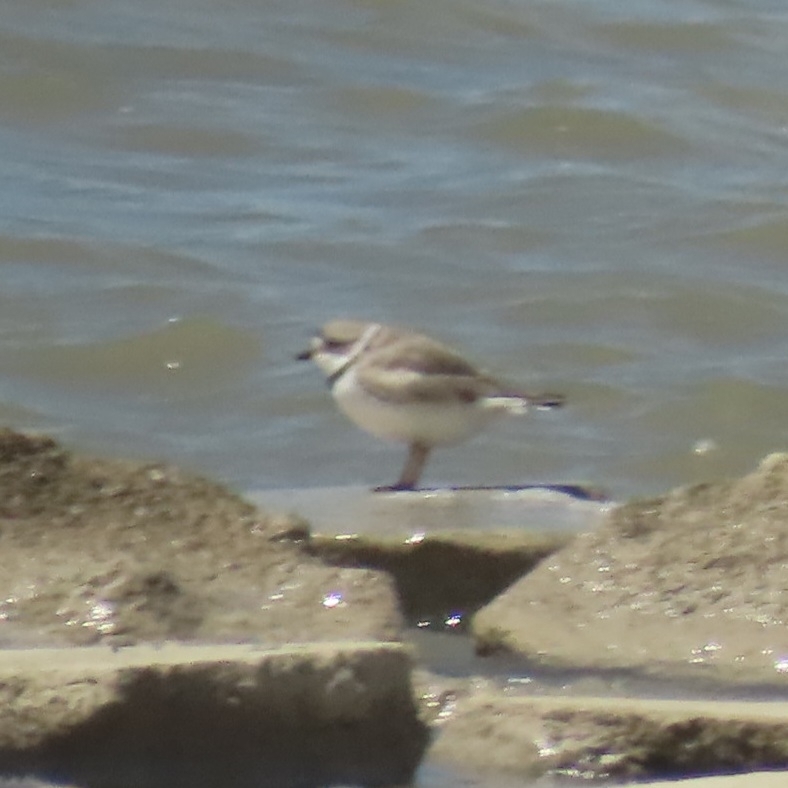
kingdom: Animalia
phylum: Chordata
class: Aves
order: Charadriiformes
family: Charadriidae
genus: Charadrius
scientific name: Charadrius melodus
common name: Piping plover
